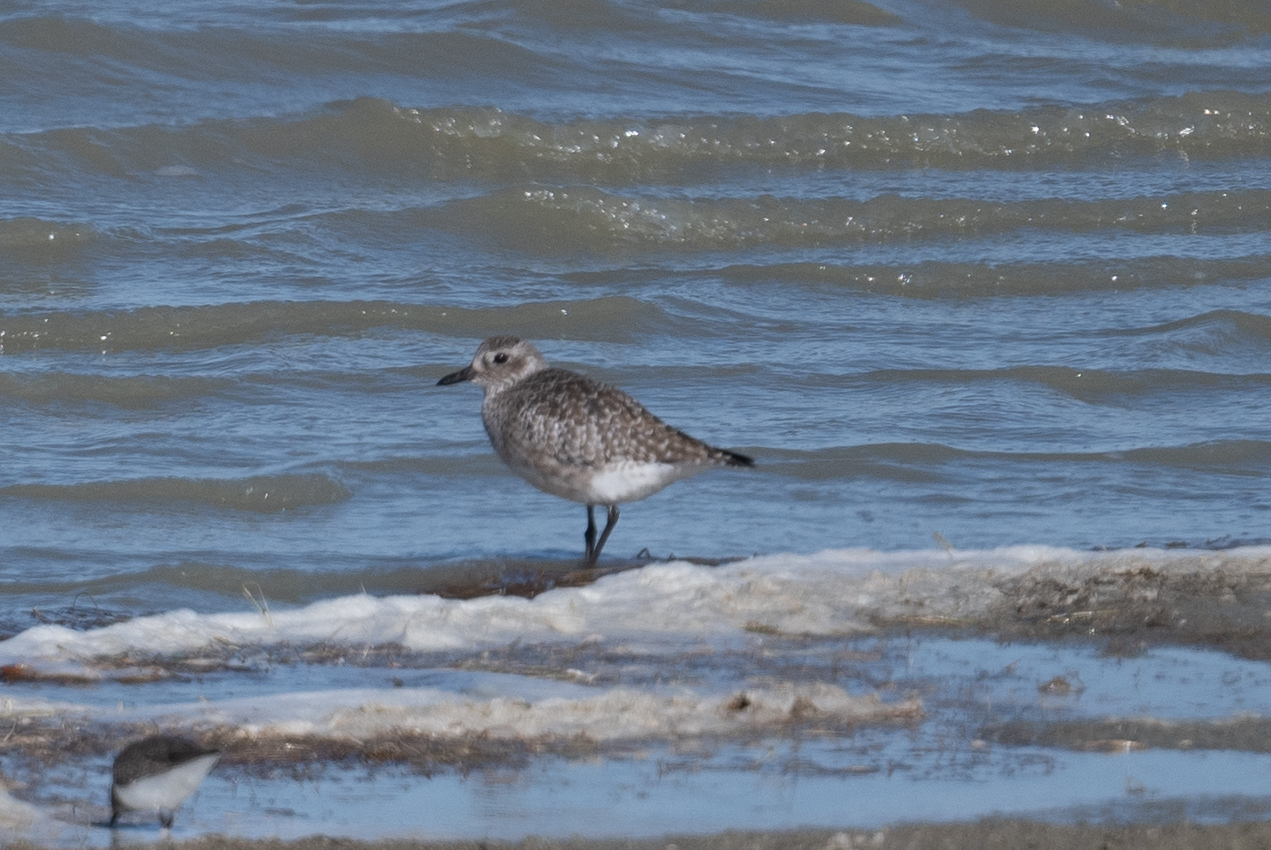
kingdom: Animalia
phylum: Chordata
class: Aves
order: Charadriiformes
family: Charadriidae
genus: Pluvialis
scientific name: Pluvialis squatarola
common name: Grey plover
